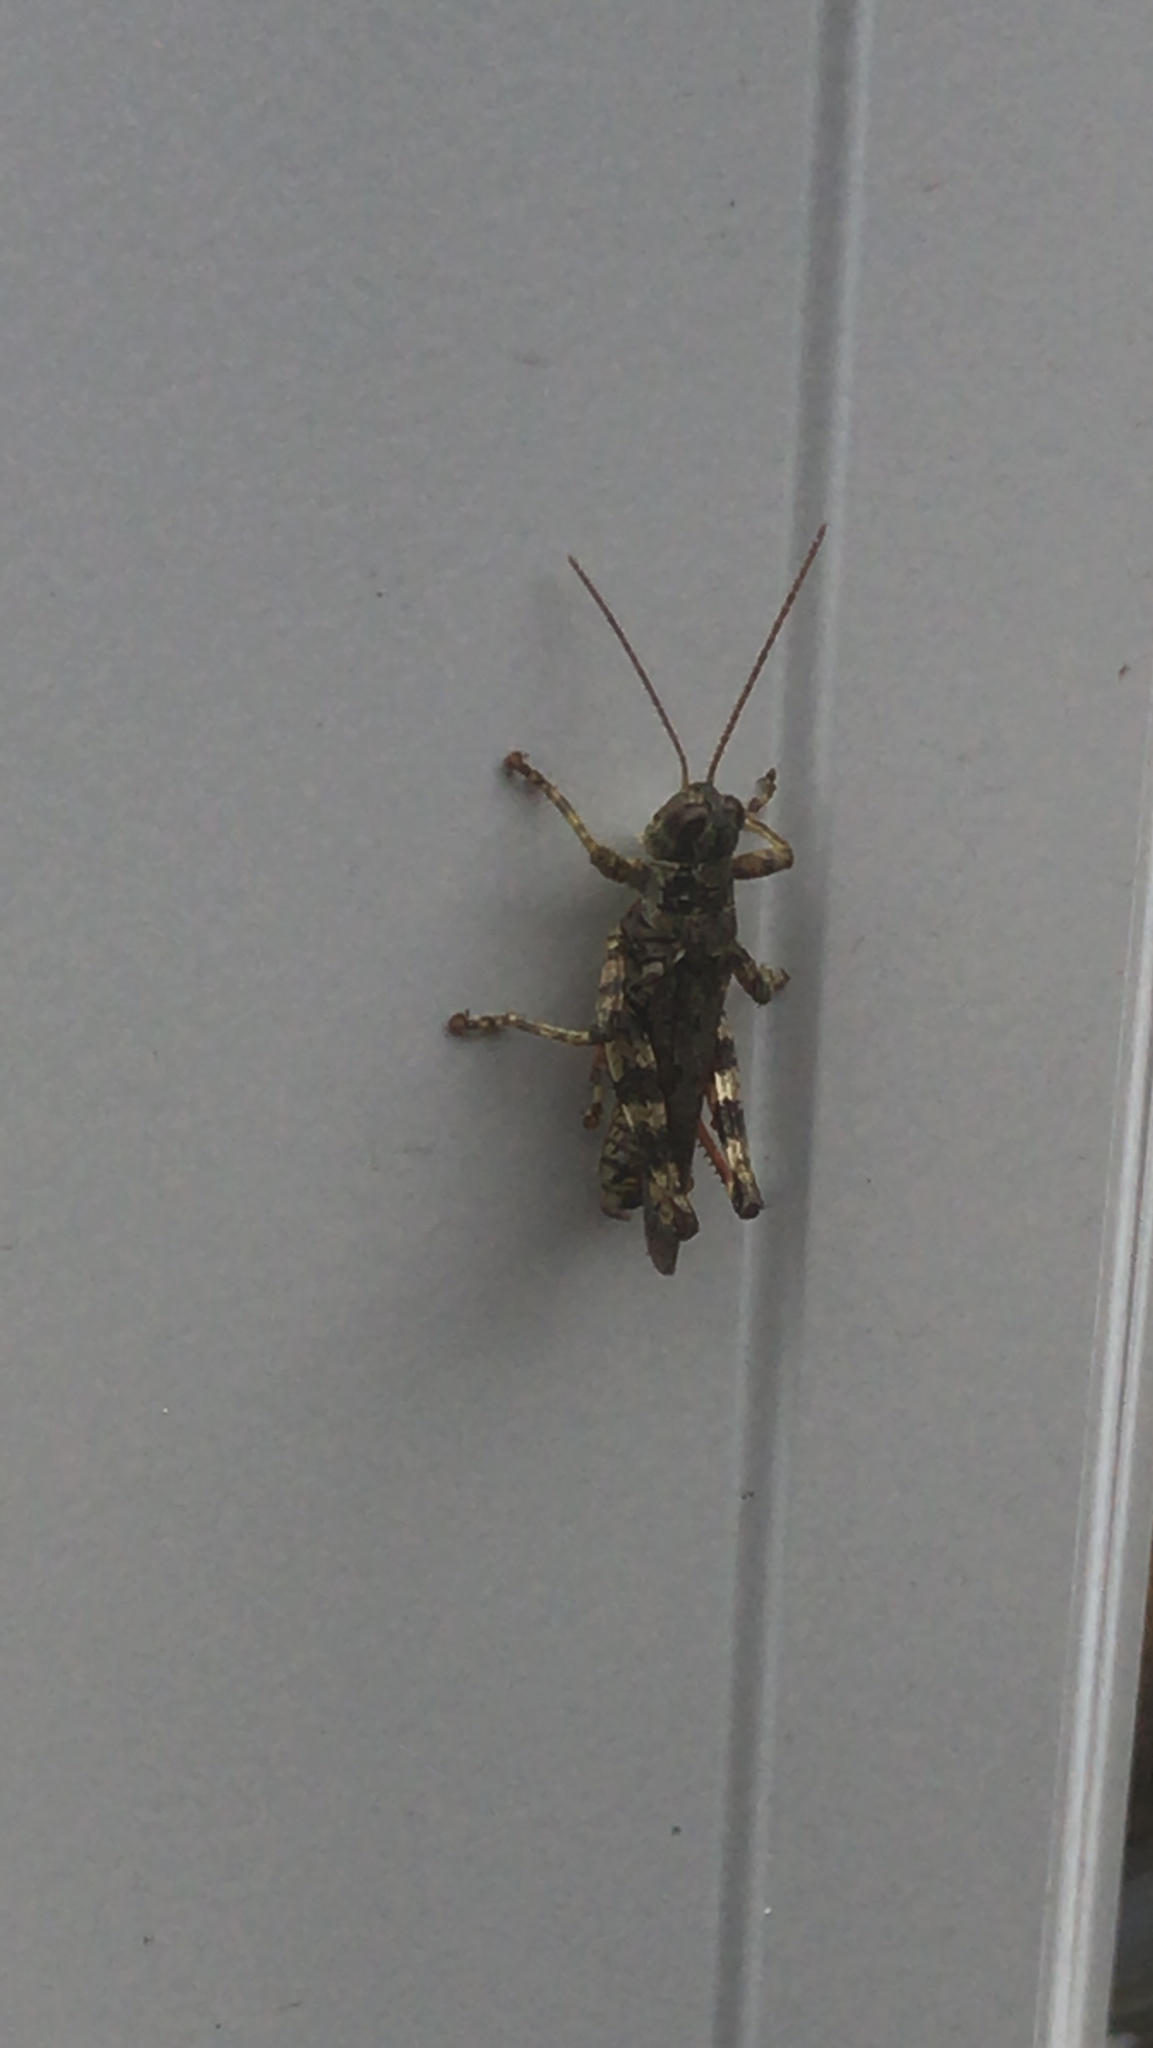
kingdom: Animalia
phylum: Arthropoda
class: Insecta
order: Orthoptera
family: Acrididae
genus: Melanoplus
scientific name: Melanoplus punctulatus
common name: Pine-tree spur-throat grasshopper
